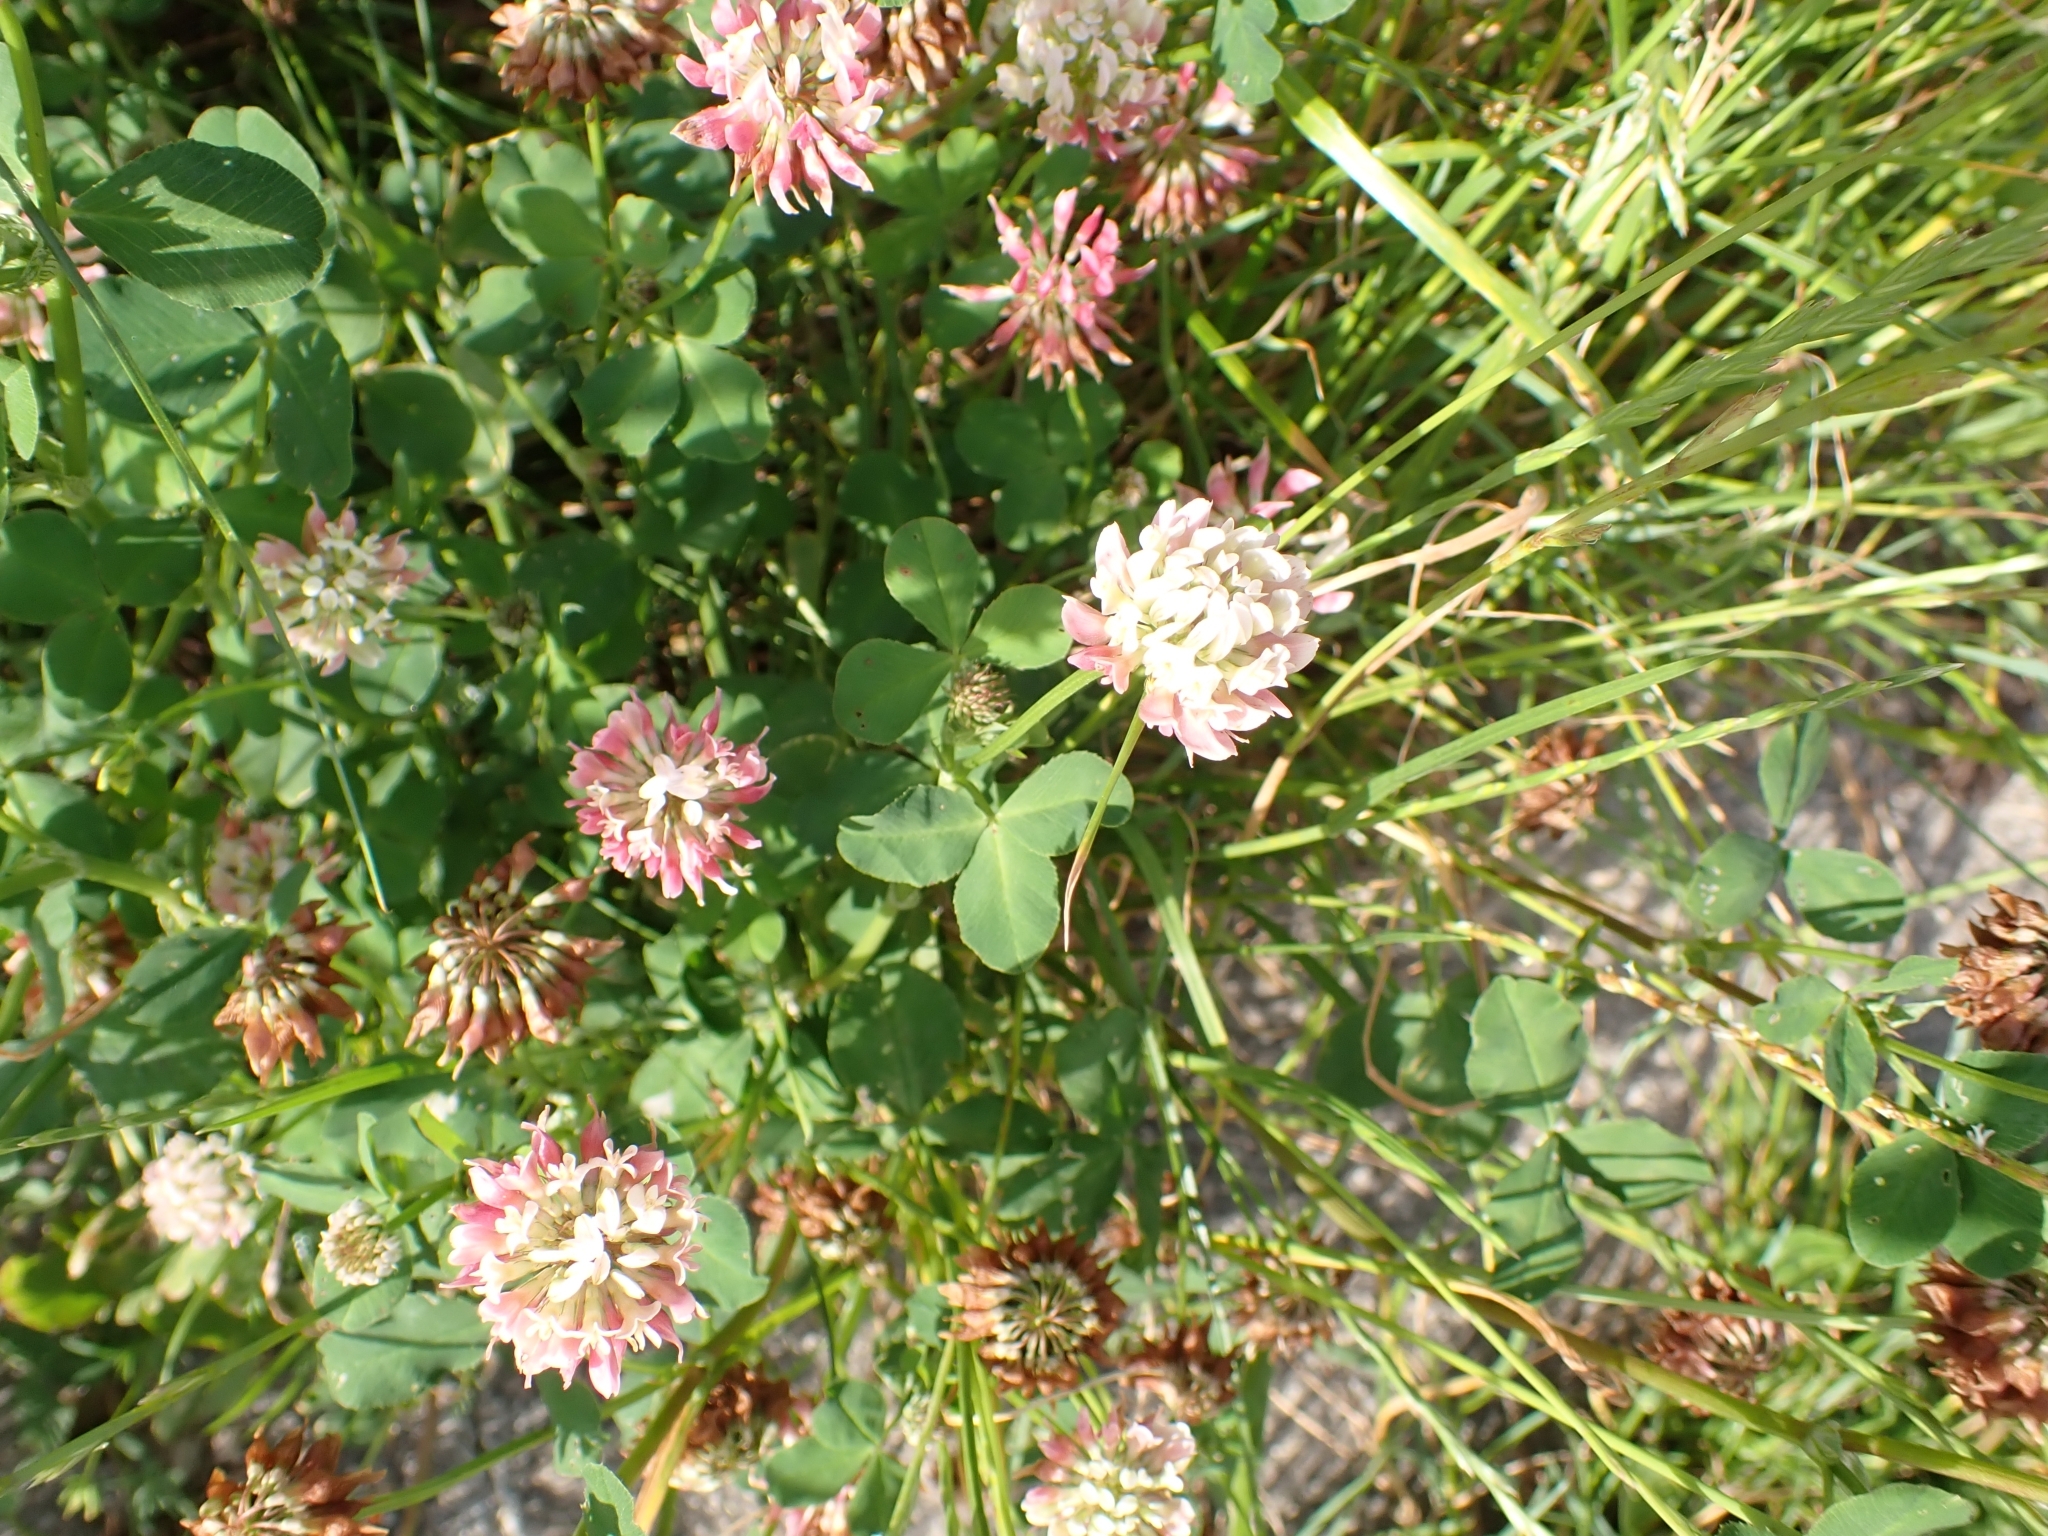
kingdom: Plantae
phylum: Tracheophyta
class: Magnoliopsida
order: Fabales
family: Fabaceae
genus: Trifolium
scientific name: Trifolium hybridum
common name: Alsike clover
